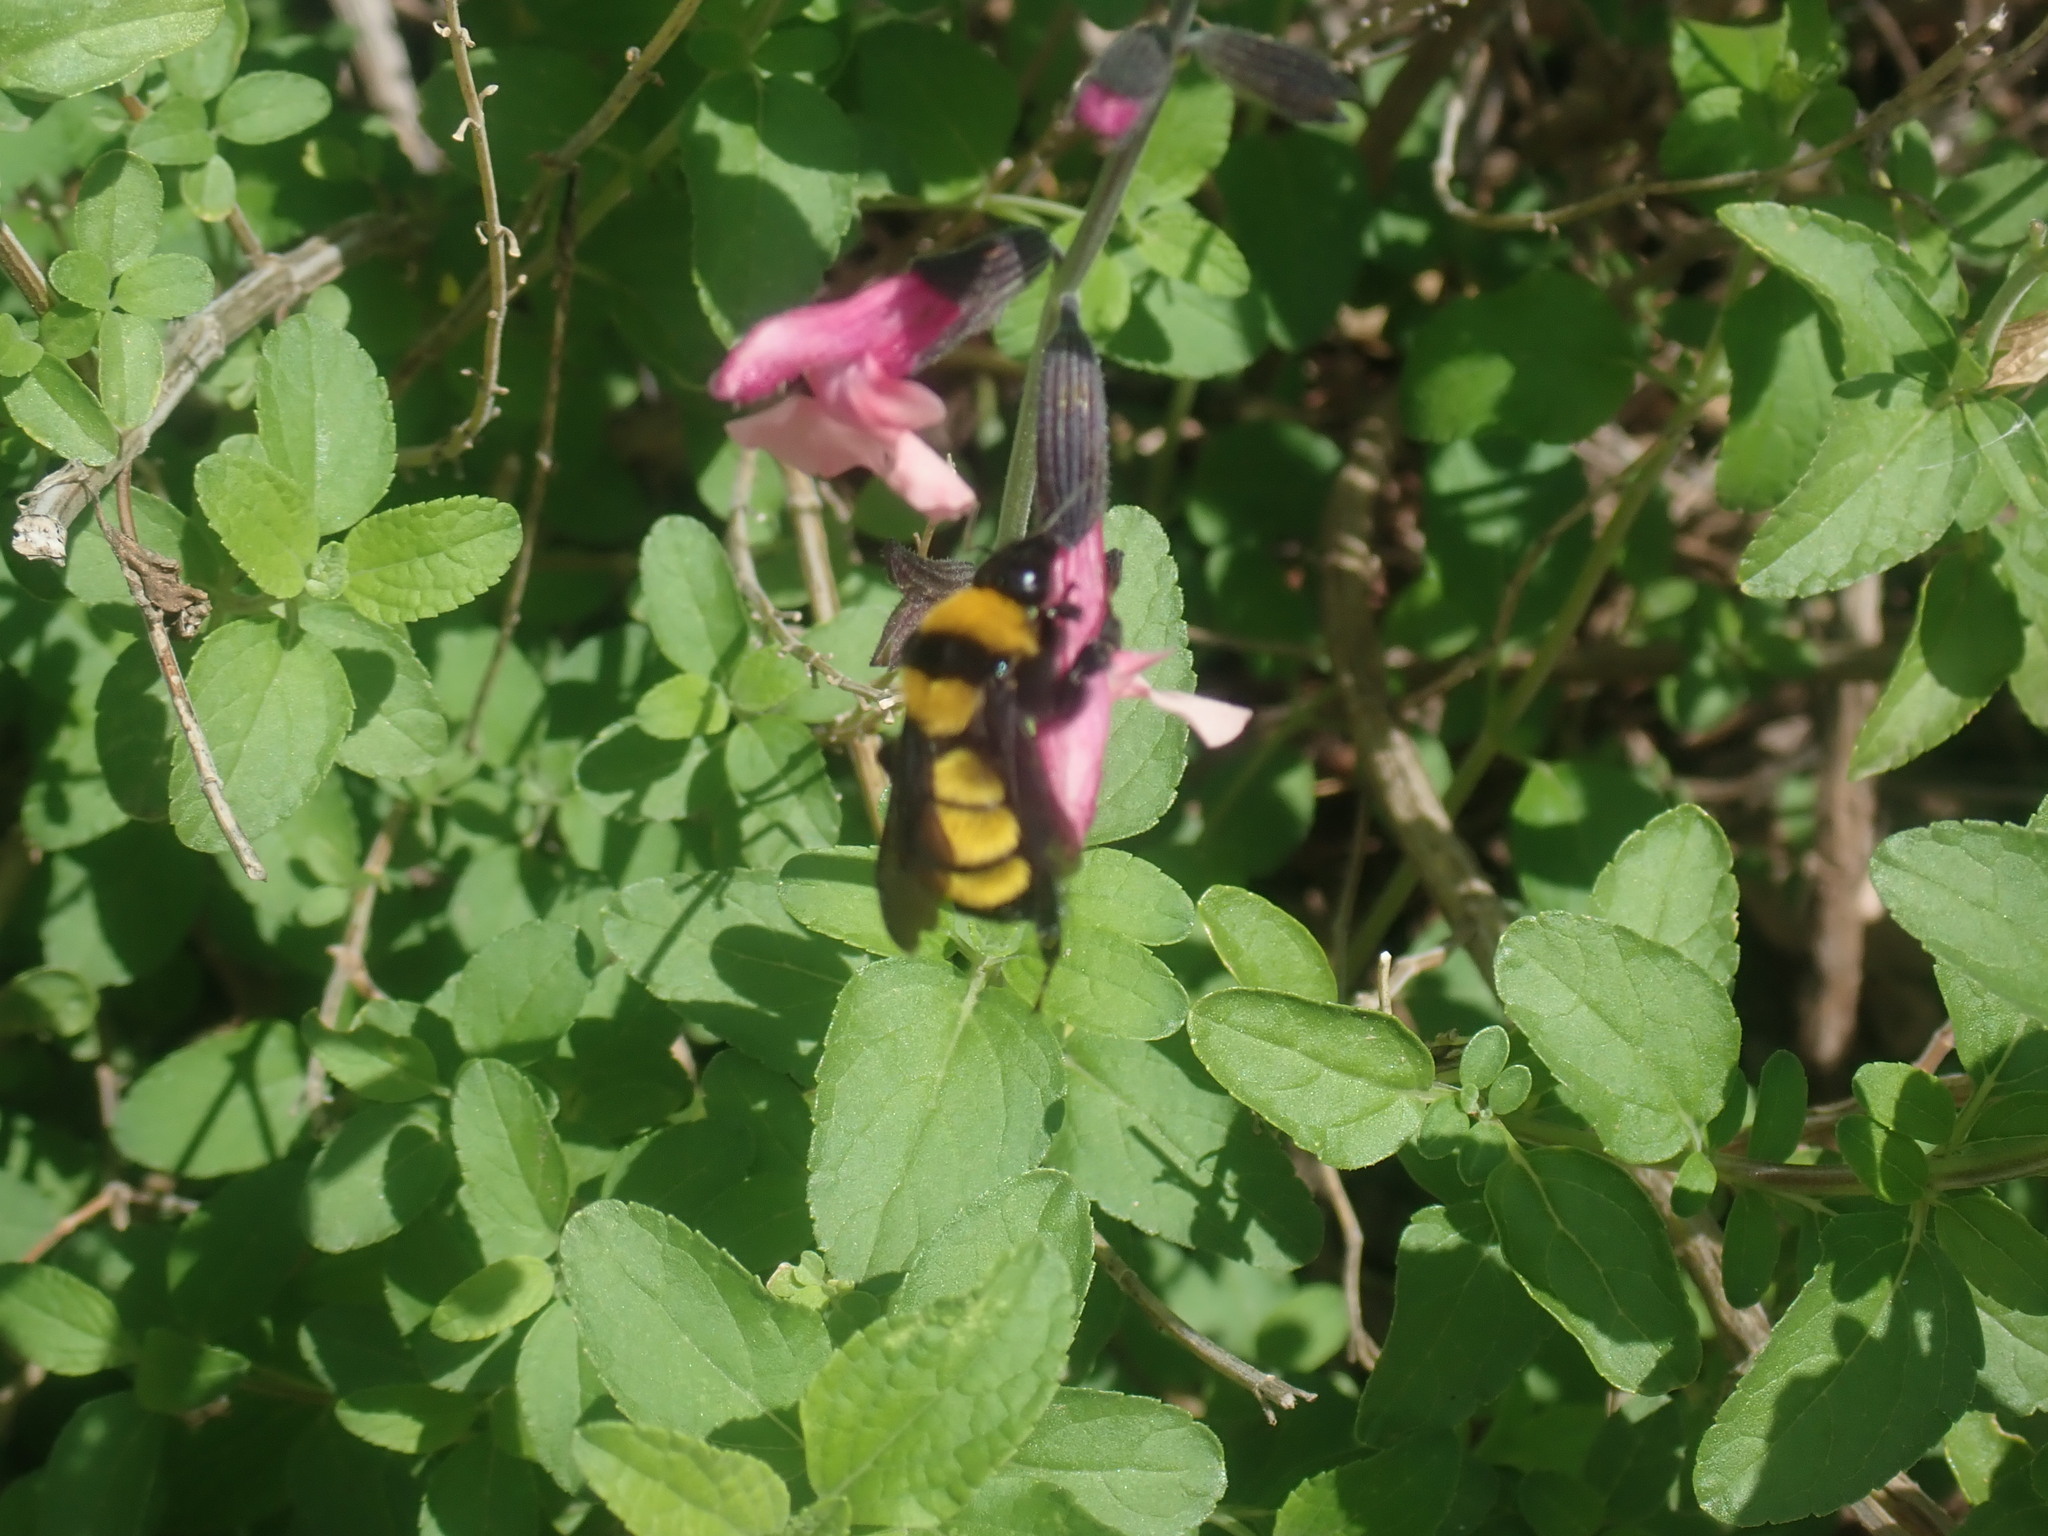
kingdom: Animalia
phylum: Arthropoda
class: Insecta
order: Hymenoptera
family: Apidae
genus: Bombus
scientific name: Bombus sonorus
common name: Sonoran bumble bee
